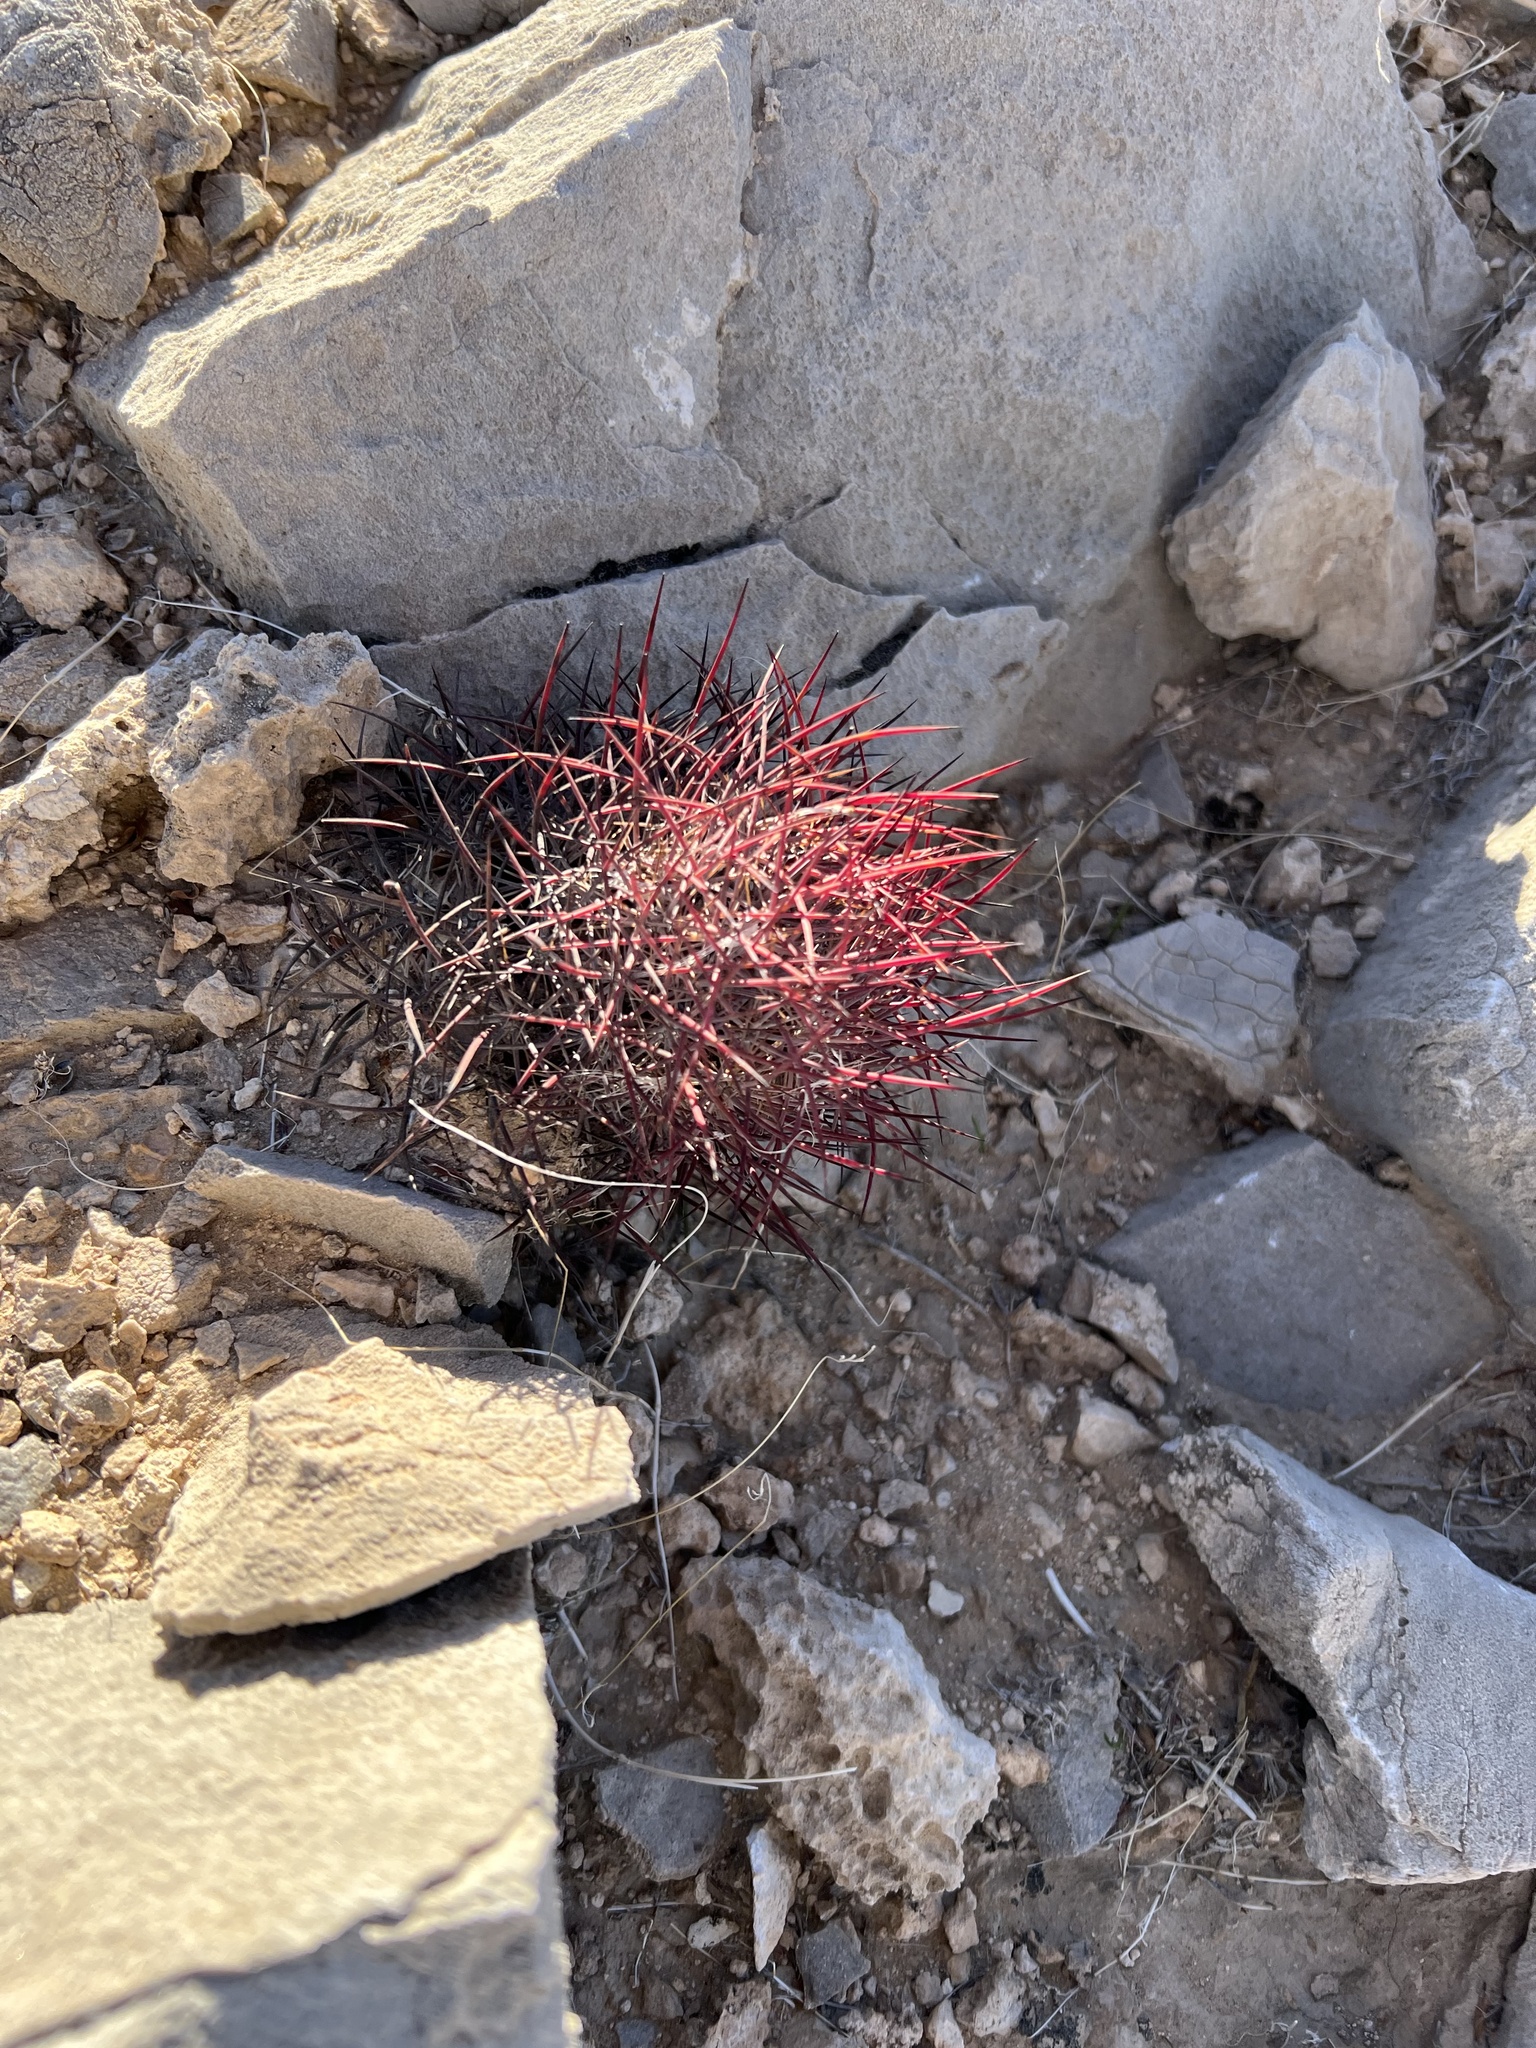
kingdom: Plantae
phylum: Tracheophyta
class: Magnoliopsida
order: Caryophyllales
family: Cactaceae
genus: Sclerocactus
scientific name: Sclerocactus johnsonii
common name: Eight-spine fishhook cactus
